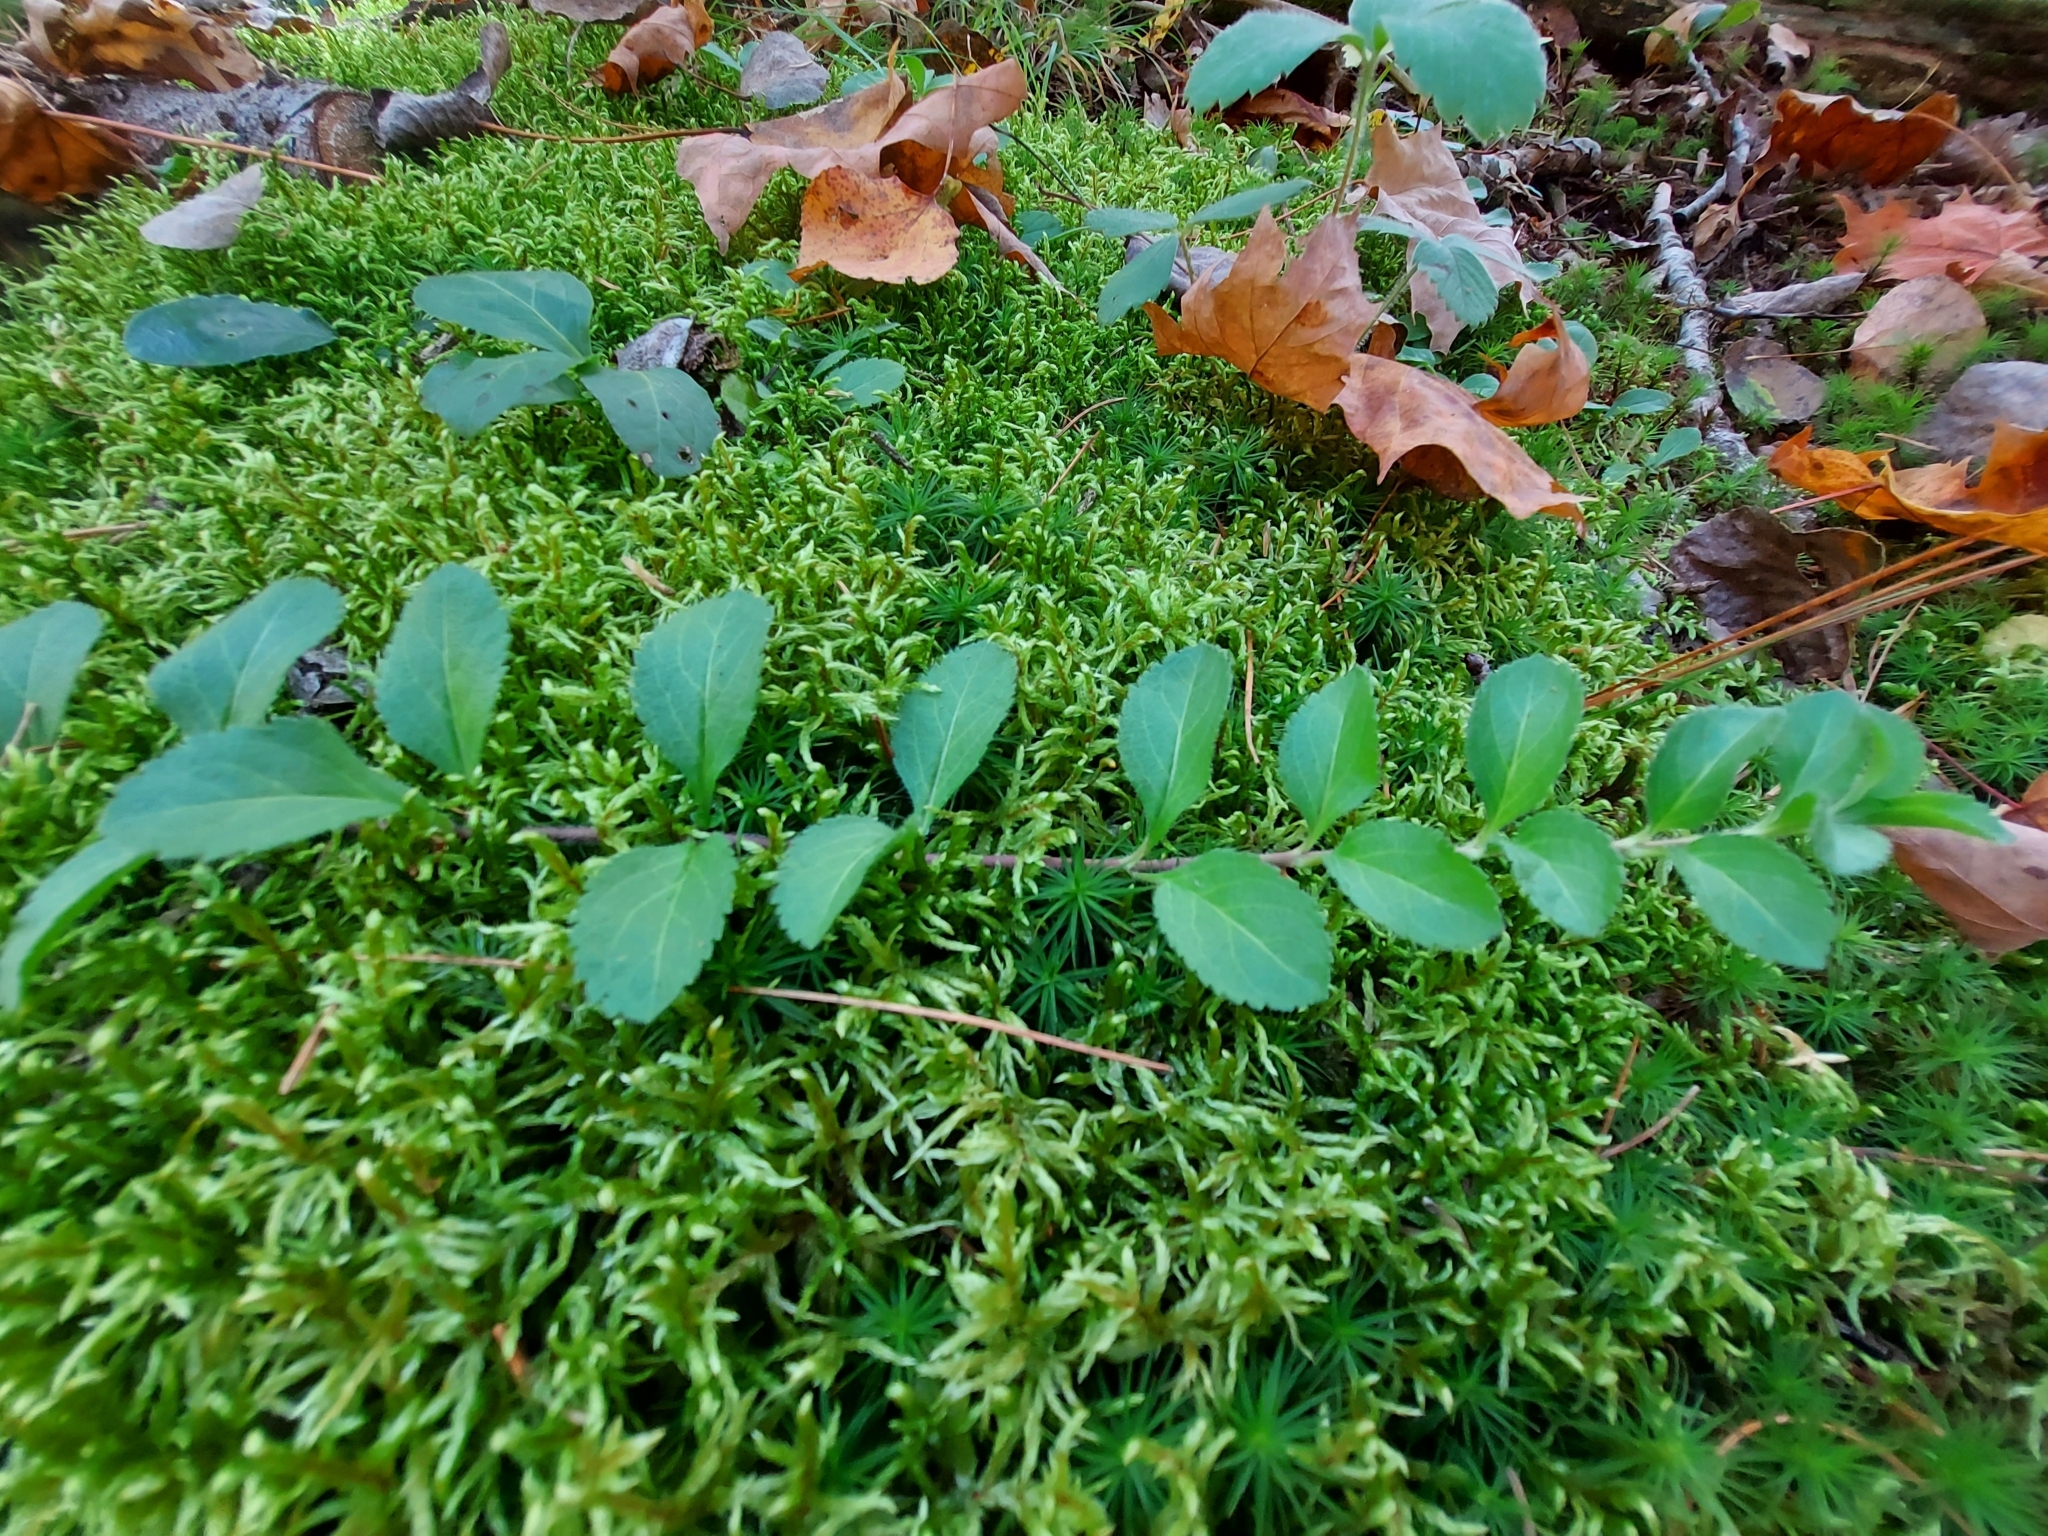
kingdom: Plantae
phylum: Tracheophyta
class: Magnoliopsida
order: Lamiales
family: Plantaginaceae
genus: Veronica
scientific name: Veronica officinalis
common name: Common speedwell
